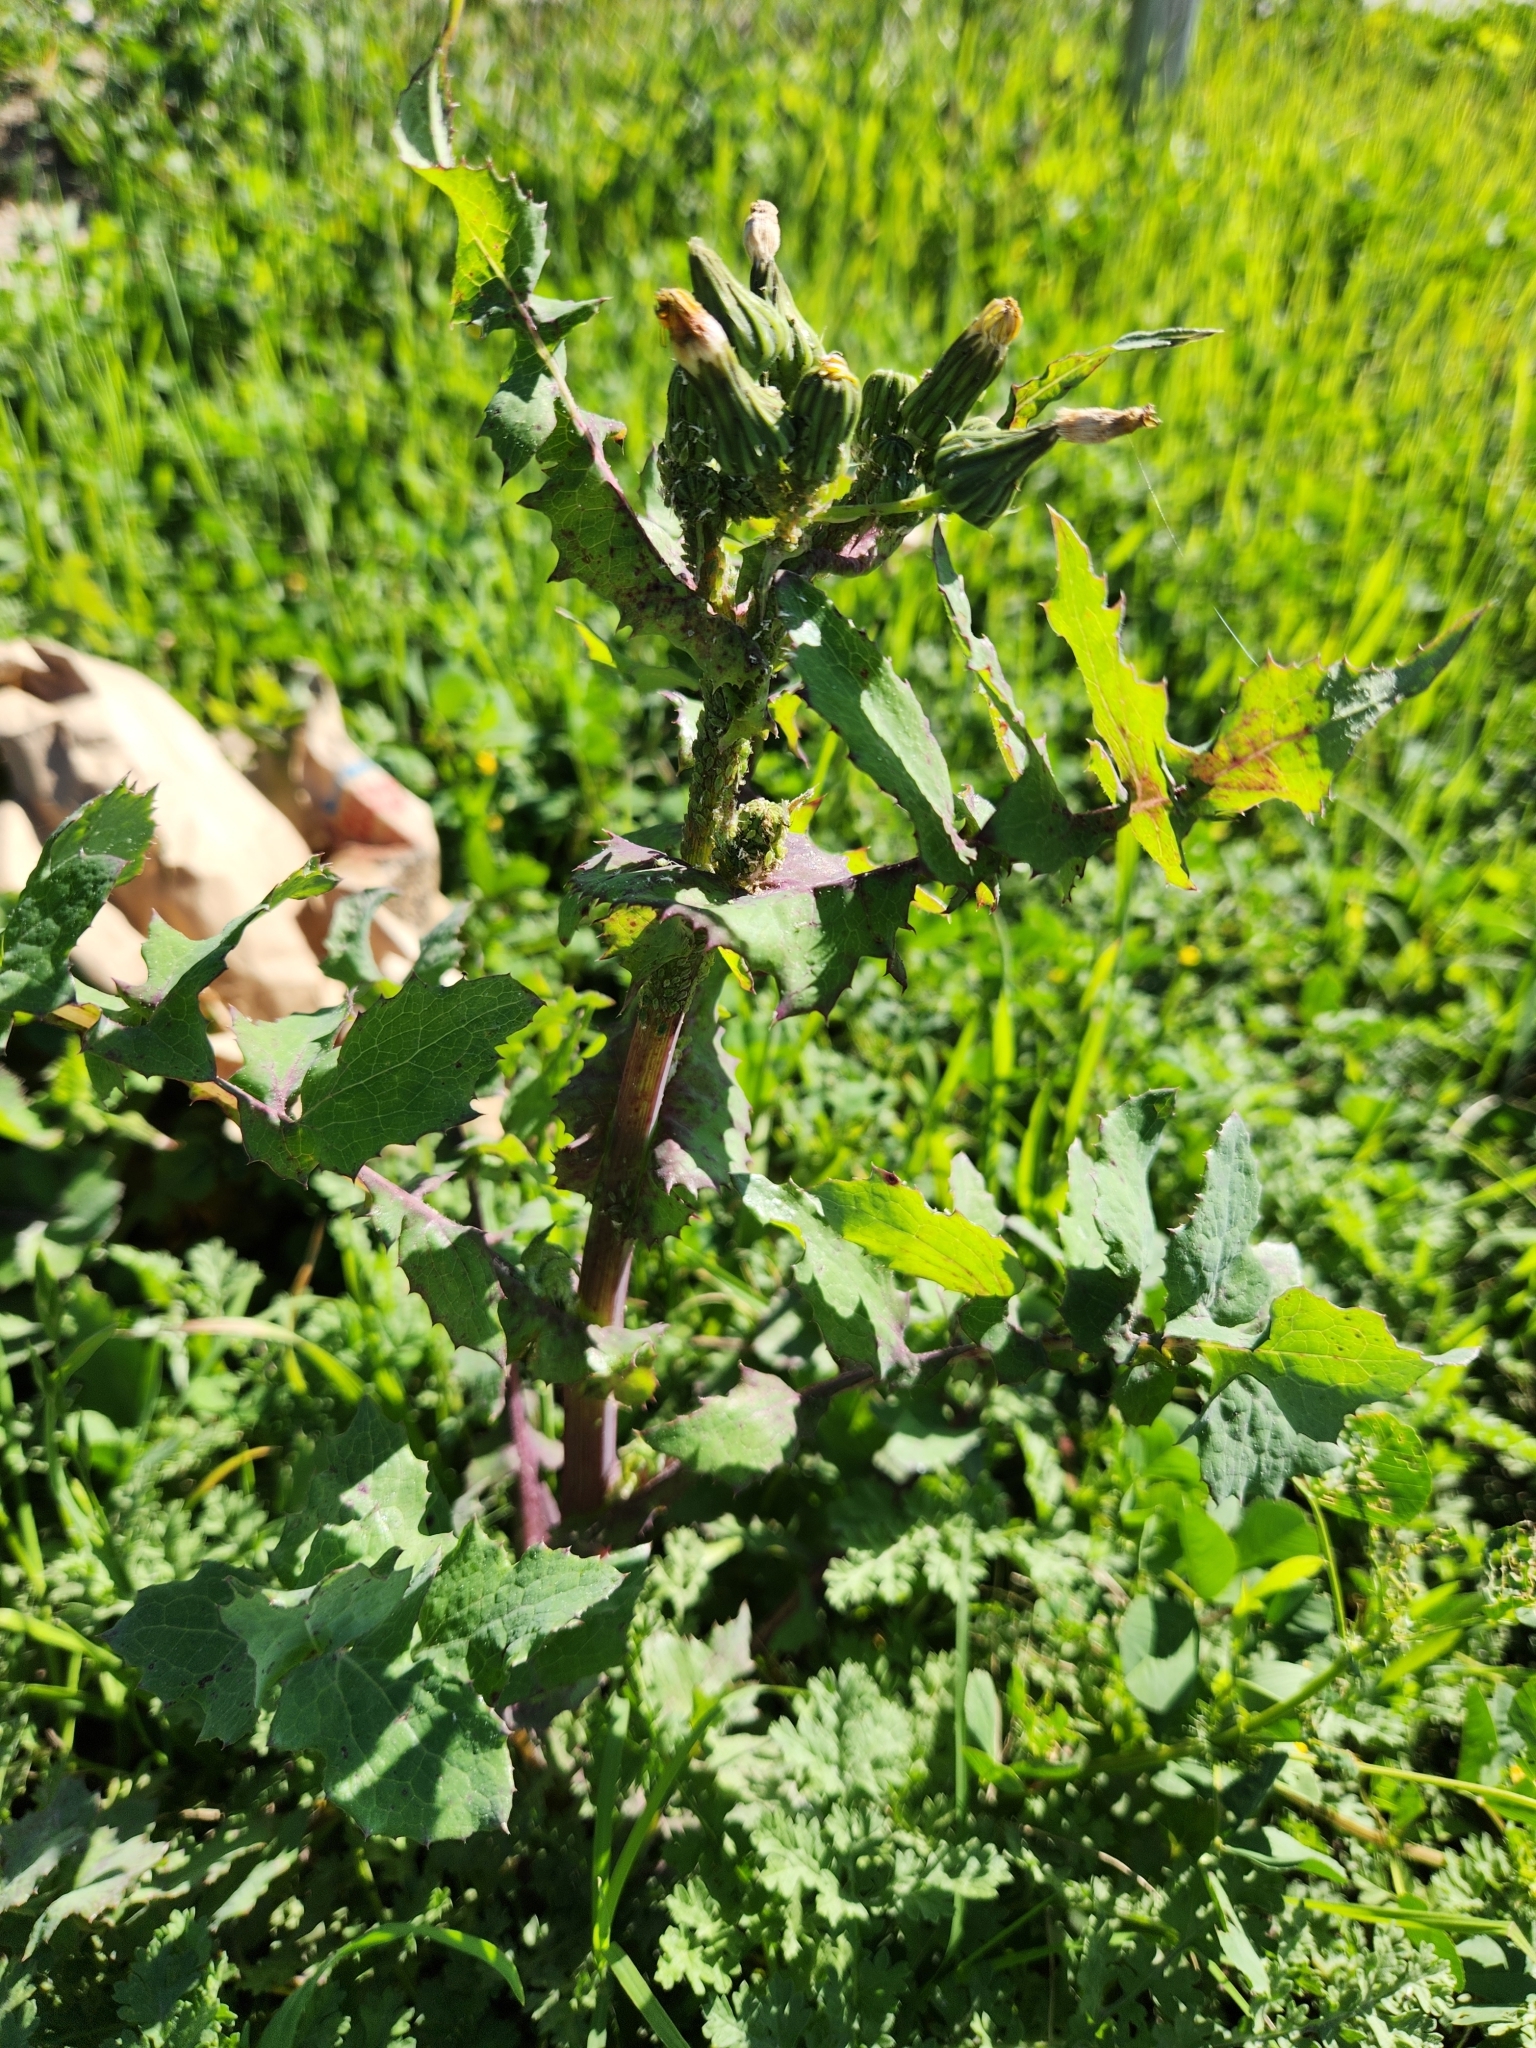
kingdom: Plantae
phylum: Tracheophyta
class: Magnoliopsida
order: Asterales
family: Asteraceae
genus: Sonchus
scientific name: Sonchus oleraceus
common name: Common sowthistle
